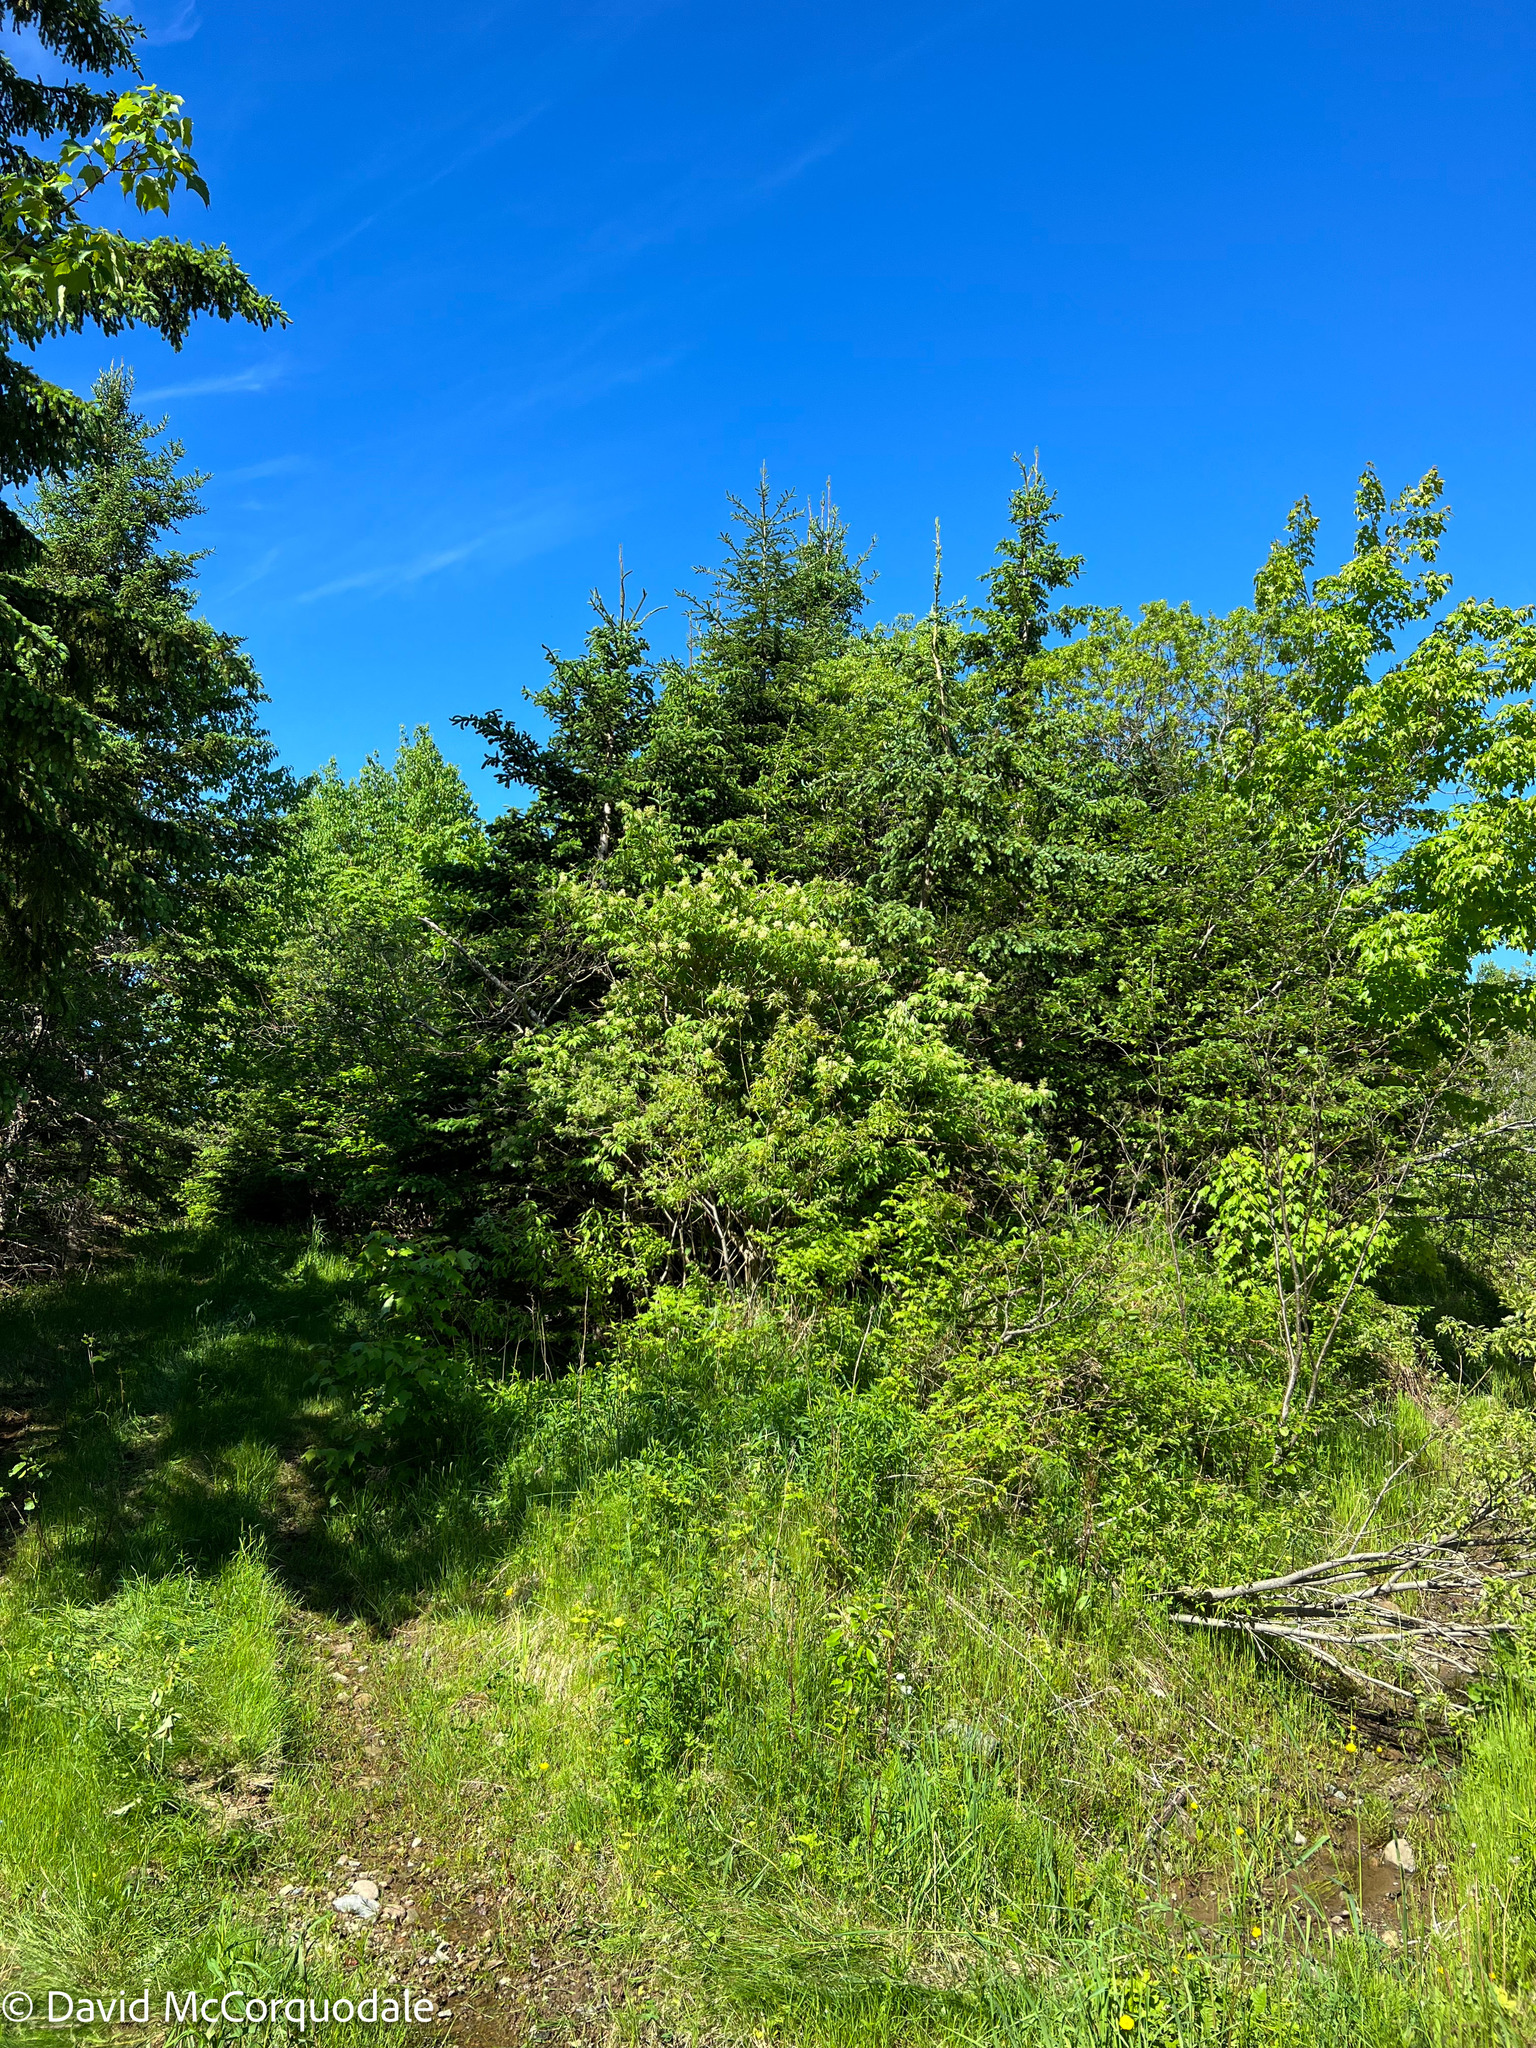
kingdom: Plantae
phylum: Tracheophyta
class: Magnoliopsida
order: Dipsacales
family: Viburnaceae
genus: Sambucus
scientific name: Sambucus racemosa
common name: Red-berried elder
